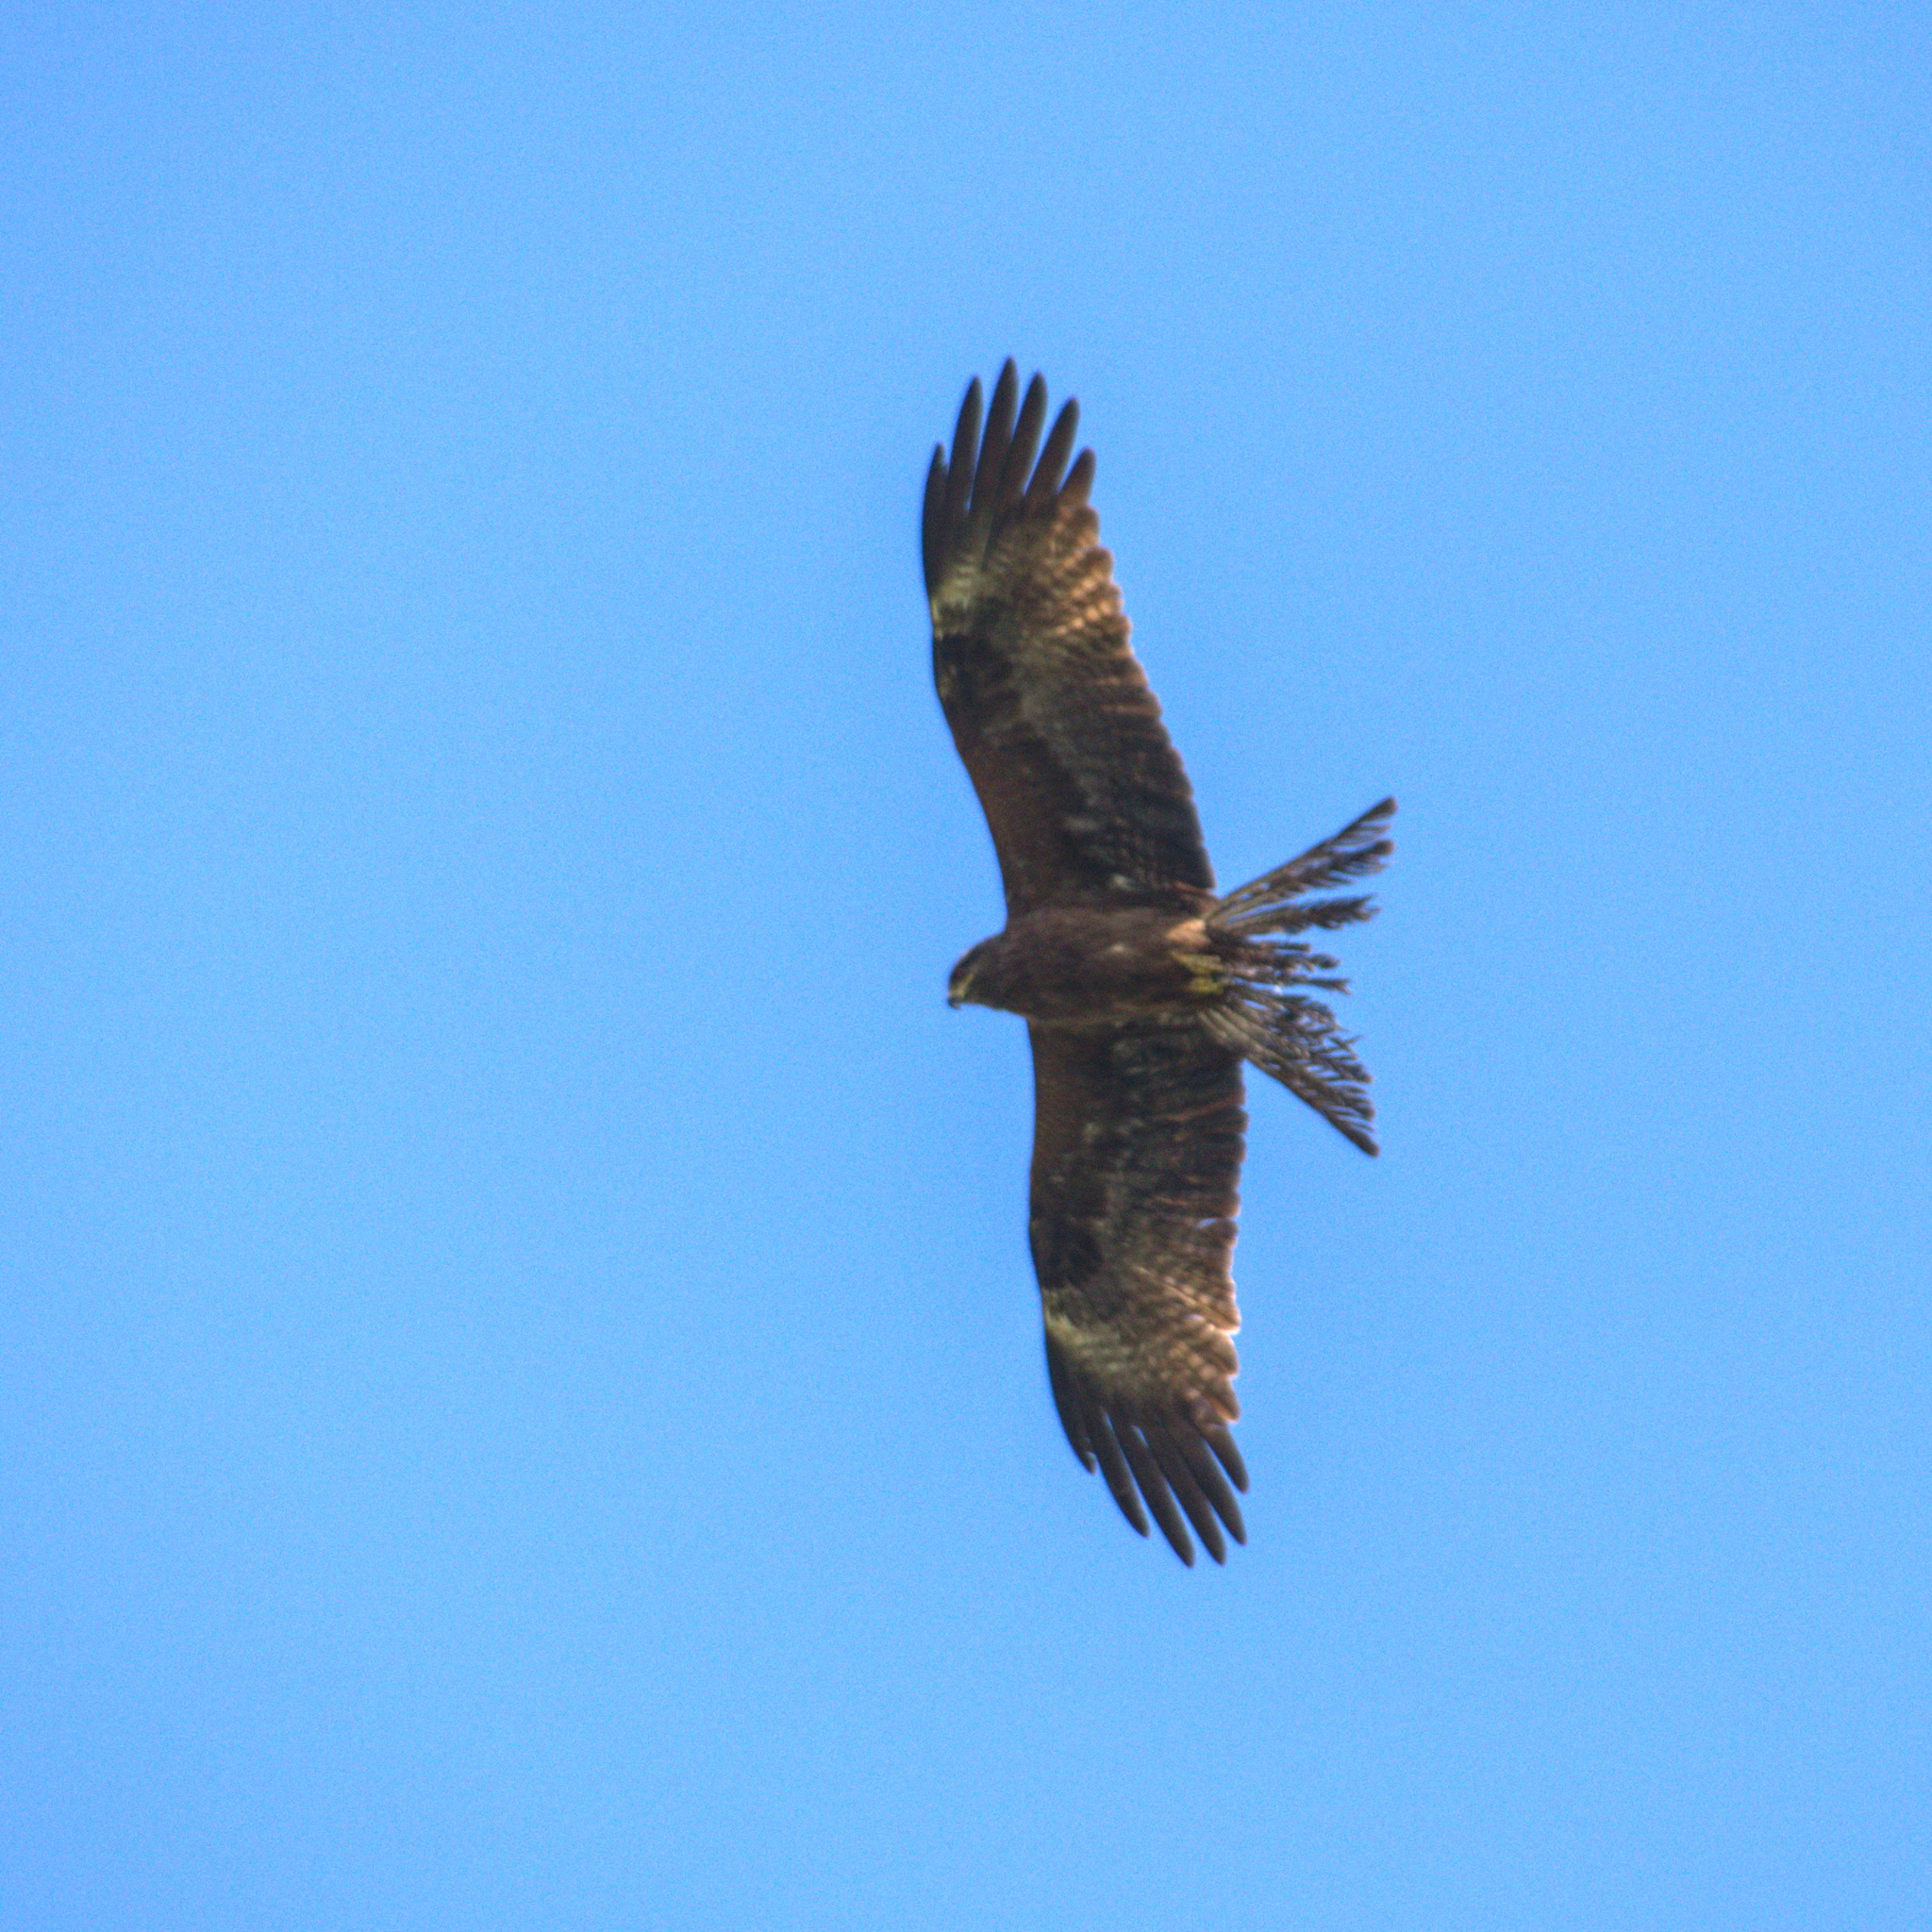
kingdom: Animalia
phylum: Chordata
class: Aves
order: Accipitriformes
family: Accipitridae
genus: Milvus
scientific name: Milvus migrans
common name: Black kite
